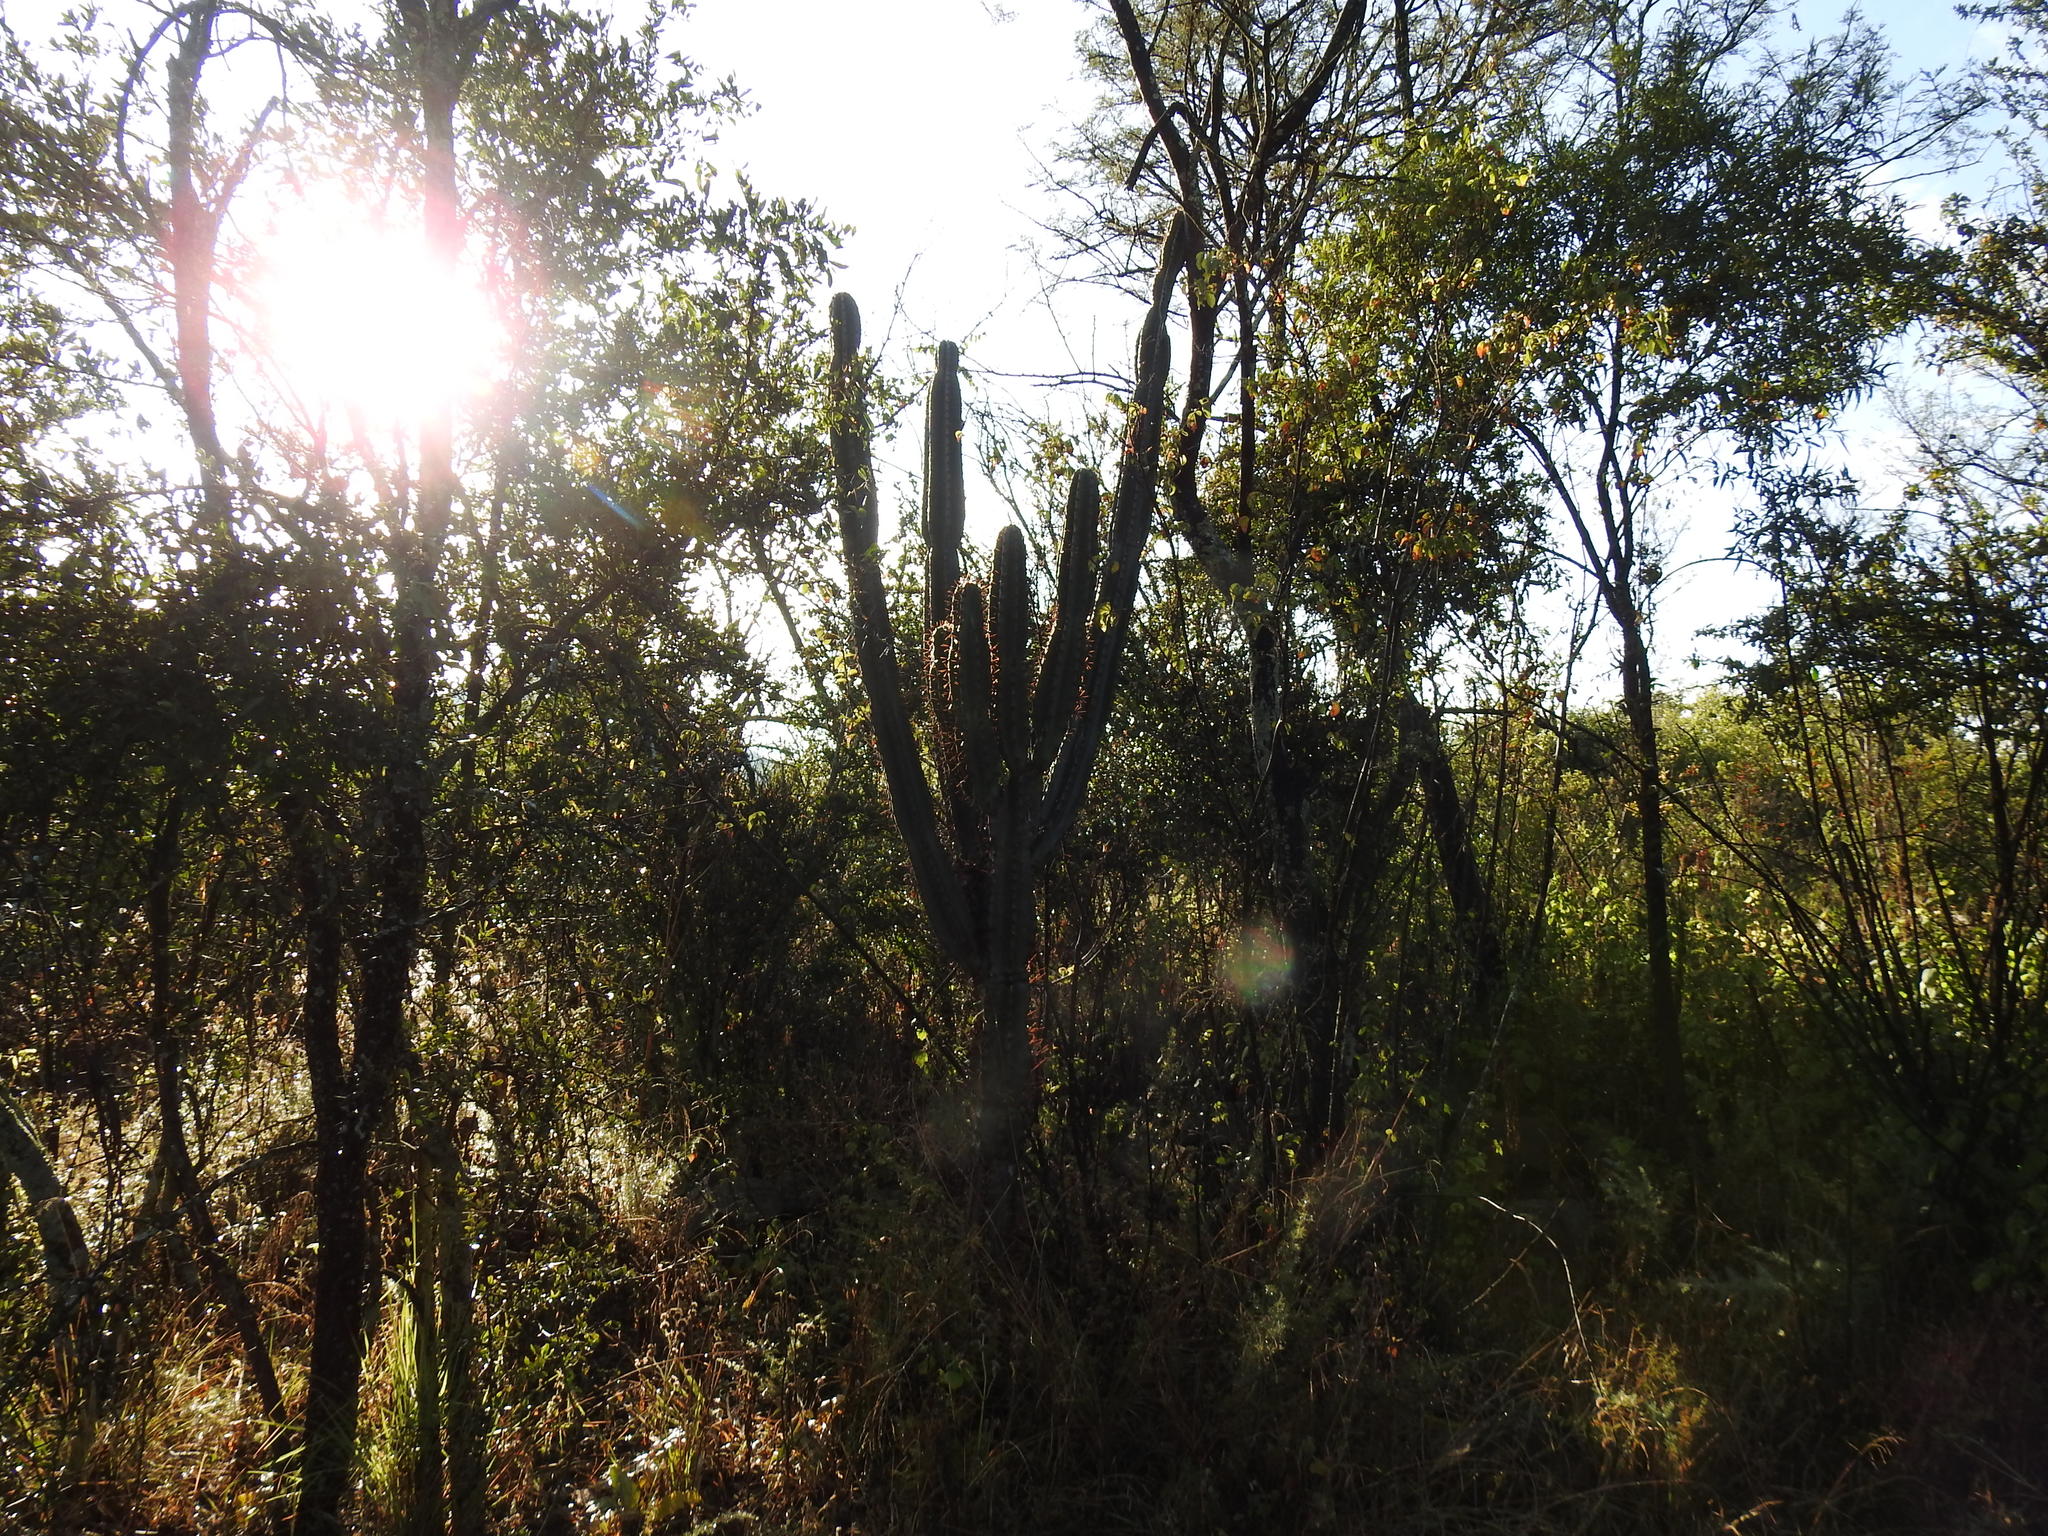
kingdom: Plantae
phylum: Tracheophyta
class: Magnoliopsida
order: Caryophyllales
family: Cactaceae
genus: Cereus
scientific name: Cereus jamacaru
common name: Queen-of-the-night
